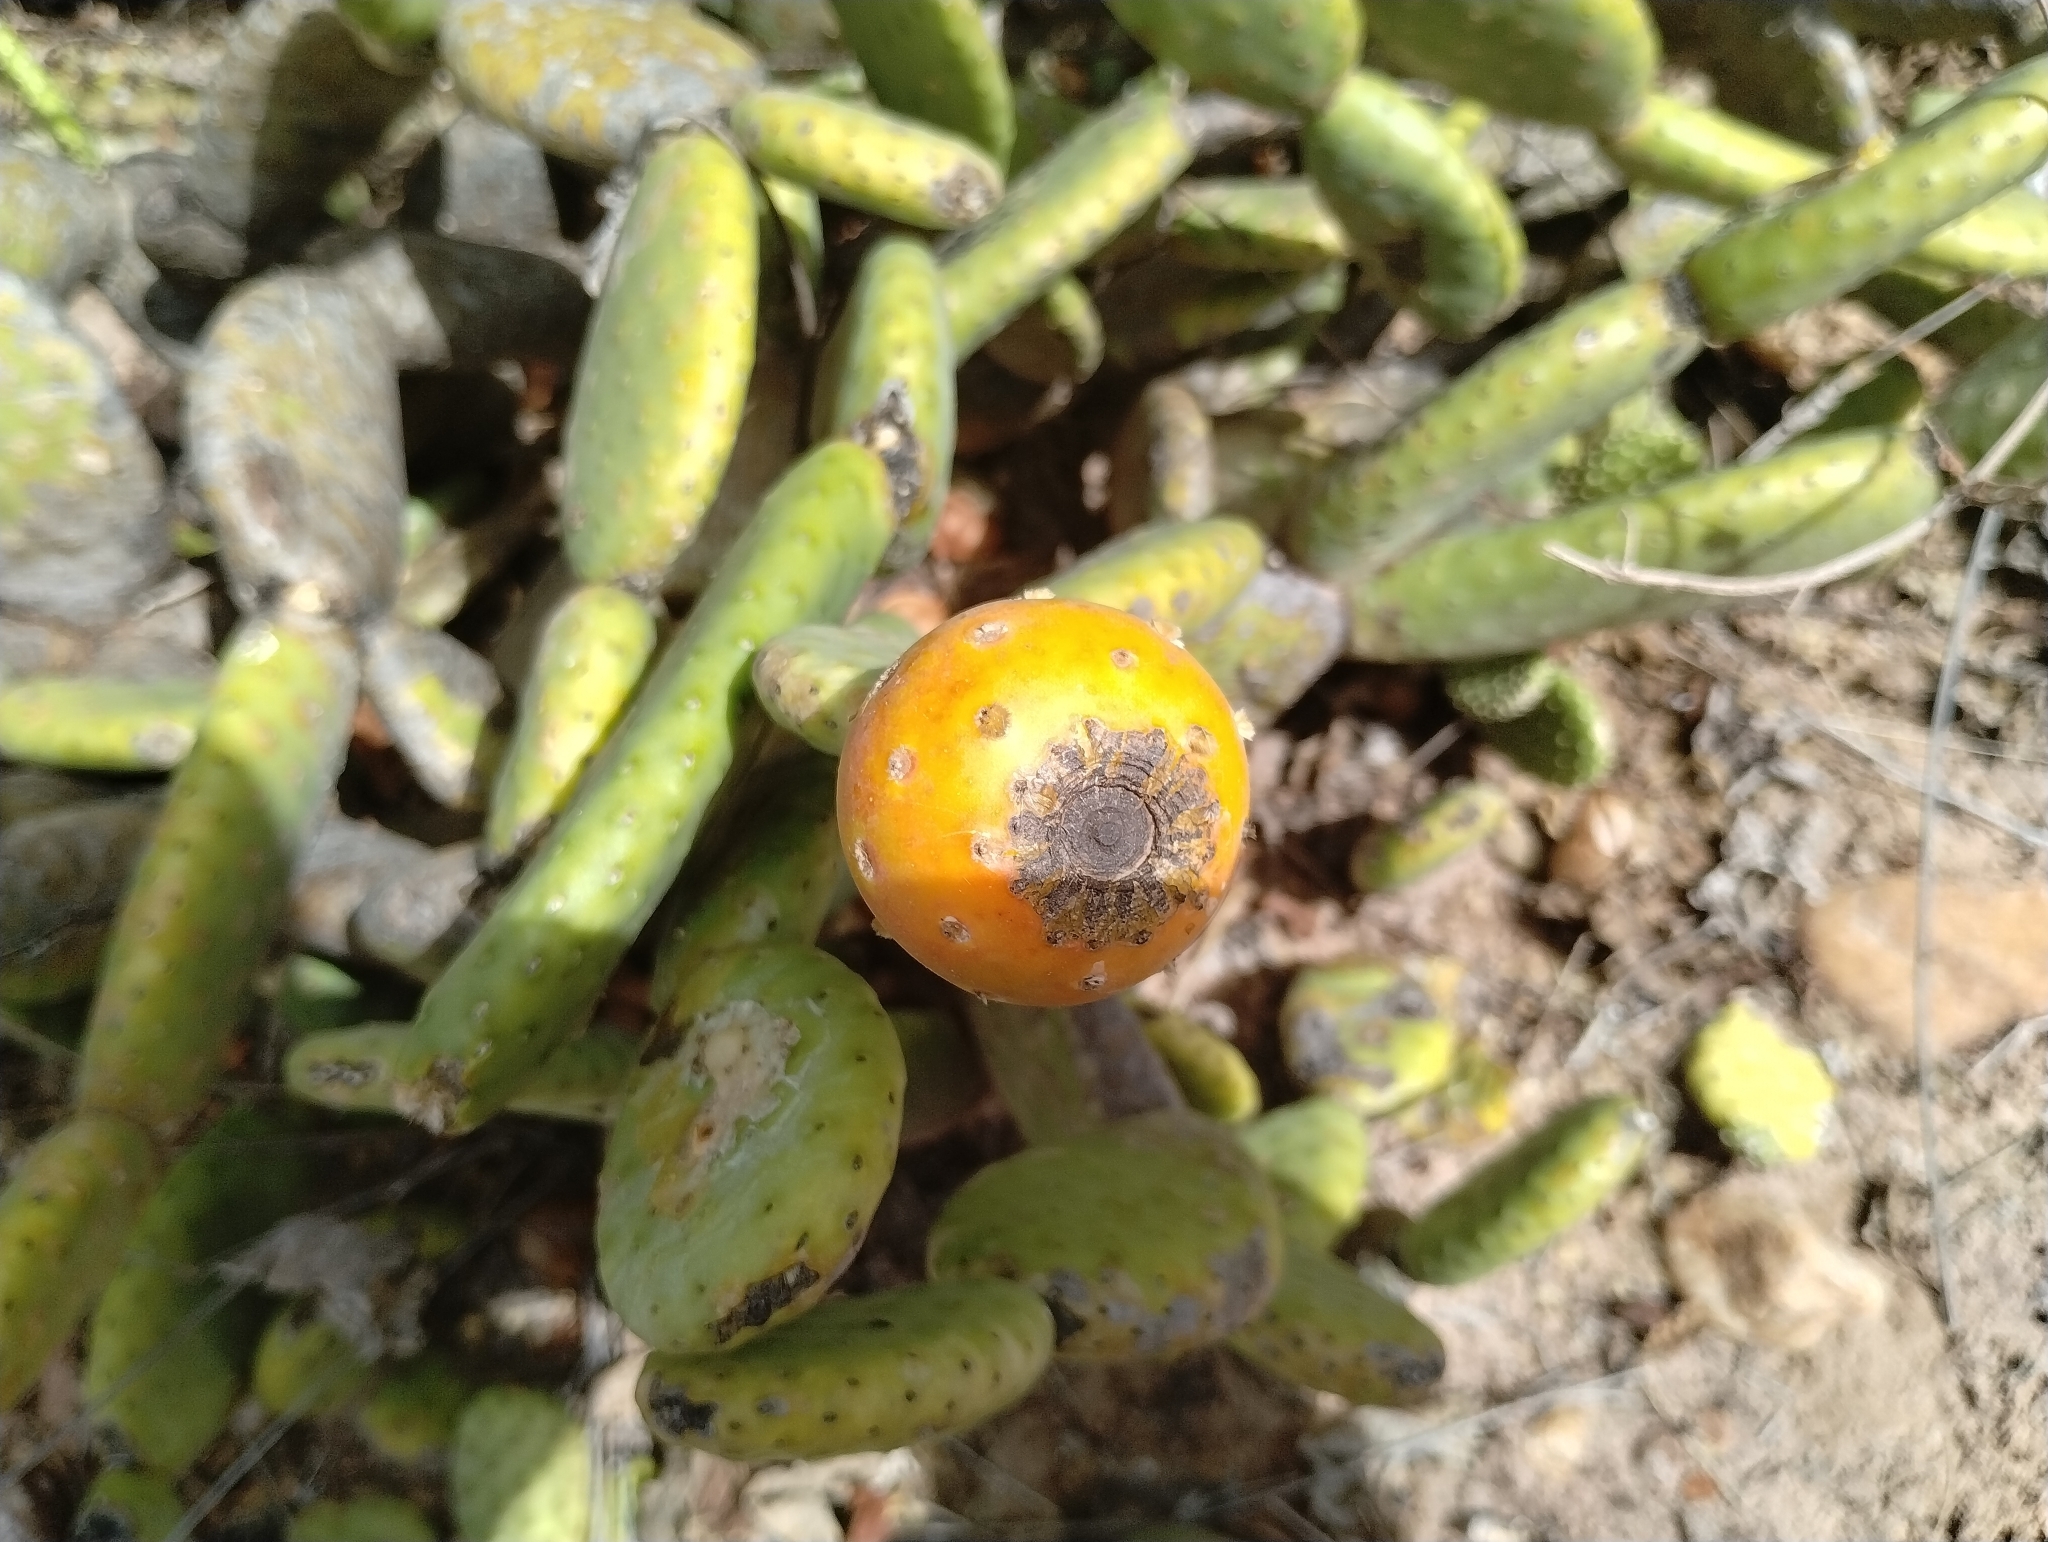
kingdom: Plantae
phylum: Tracheophyta
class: Magnoliopsida
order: Caryophyllales
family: Cactaceae
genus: Tacinga
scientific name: Tacinga inamoena
